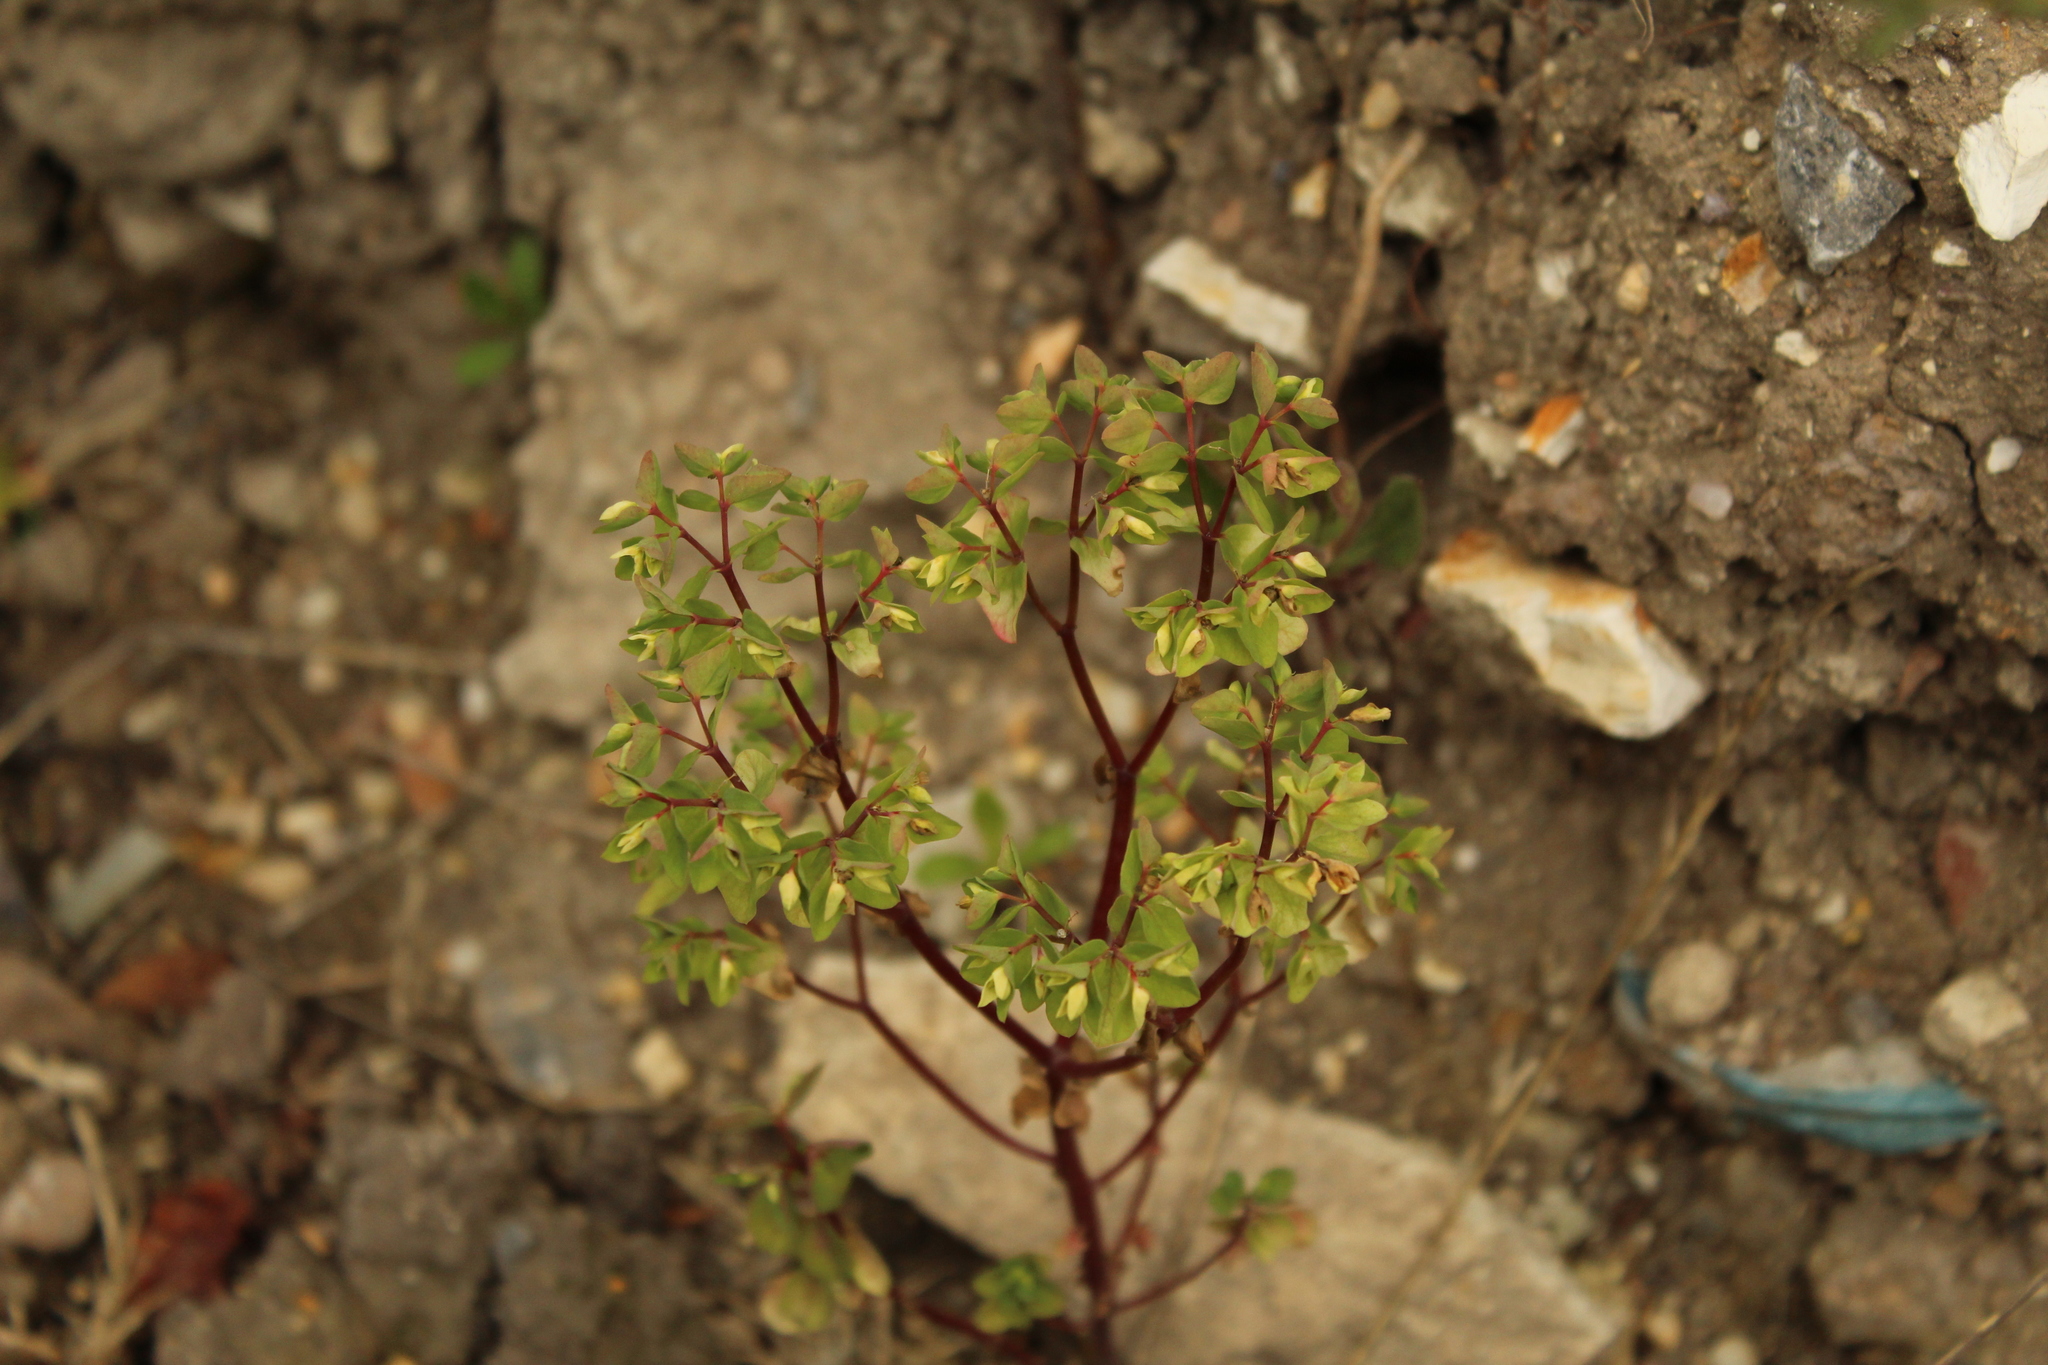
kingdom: Plantae
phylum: Tracheophyta
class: Magnoliopsida
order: Malpighiales
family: Euphorbiaceae
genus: Euphorbia
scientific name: Euphorbia peplus
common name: Petty spurge
